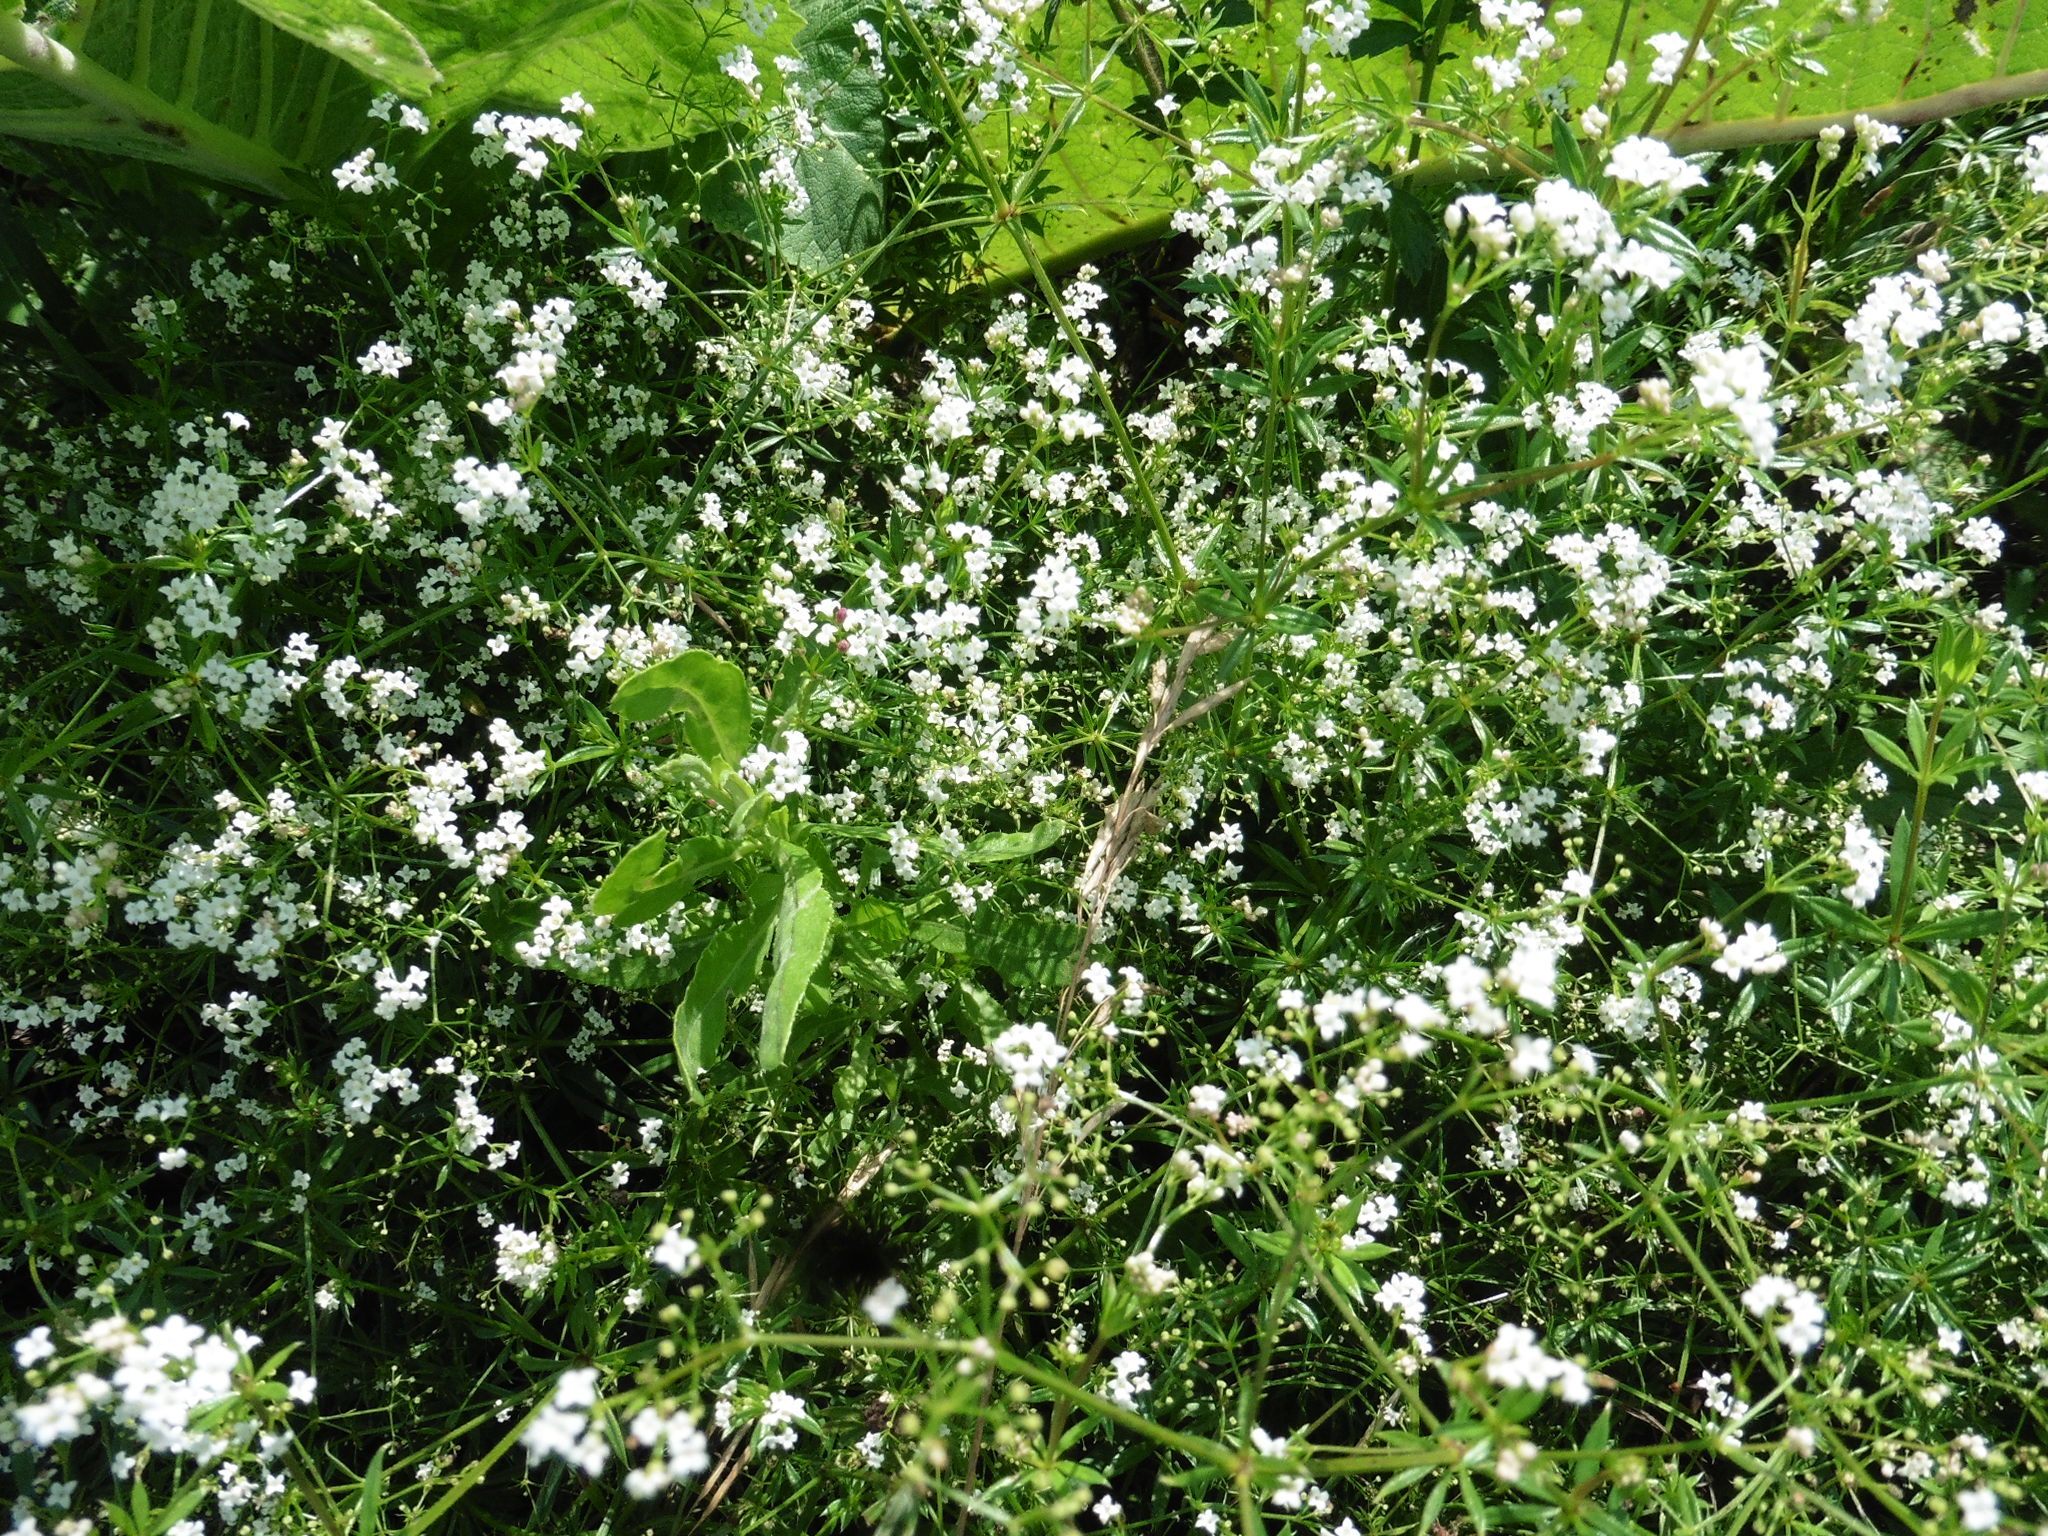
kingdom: Plantae
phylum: Tracheophyta
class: Magnoliopsida
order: Gentianales
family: Rubiaceae
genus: Galium
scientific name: Galium rivale
